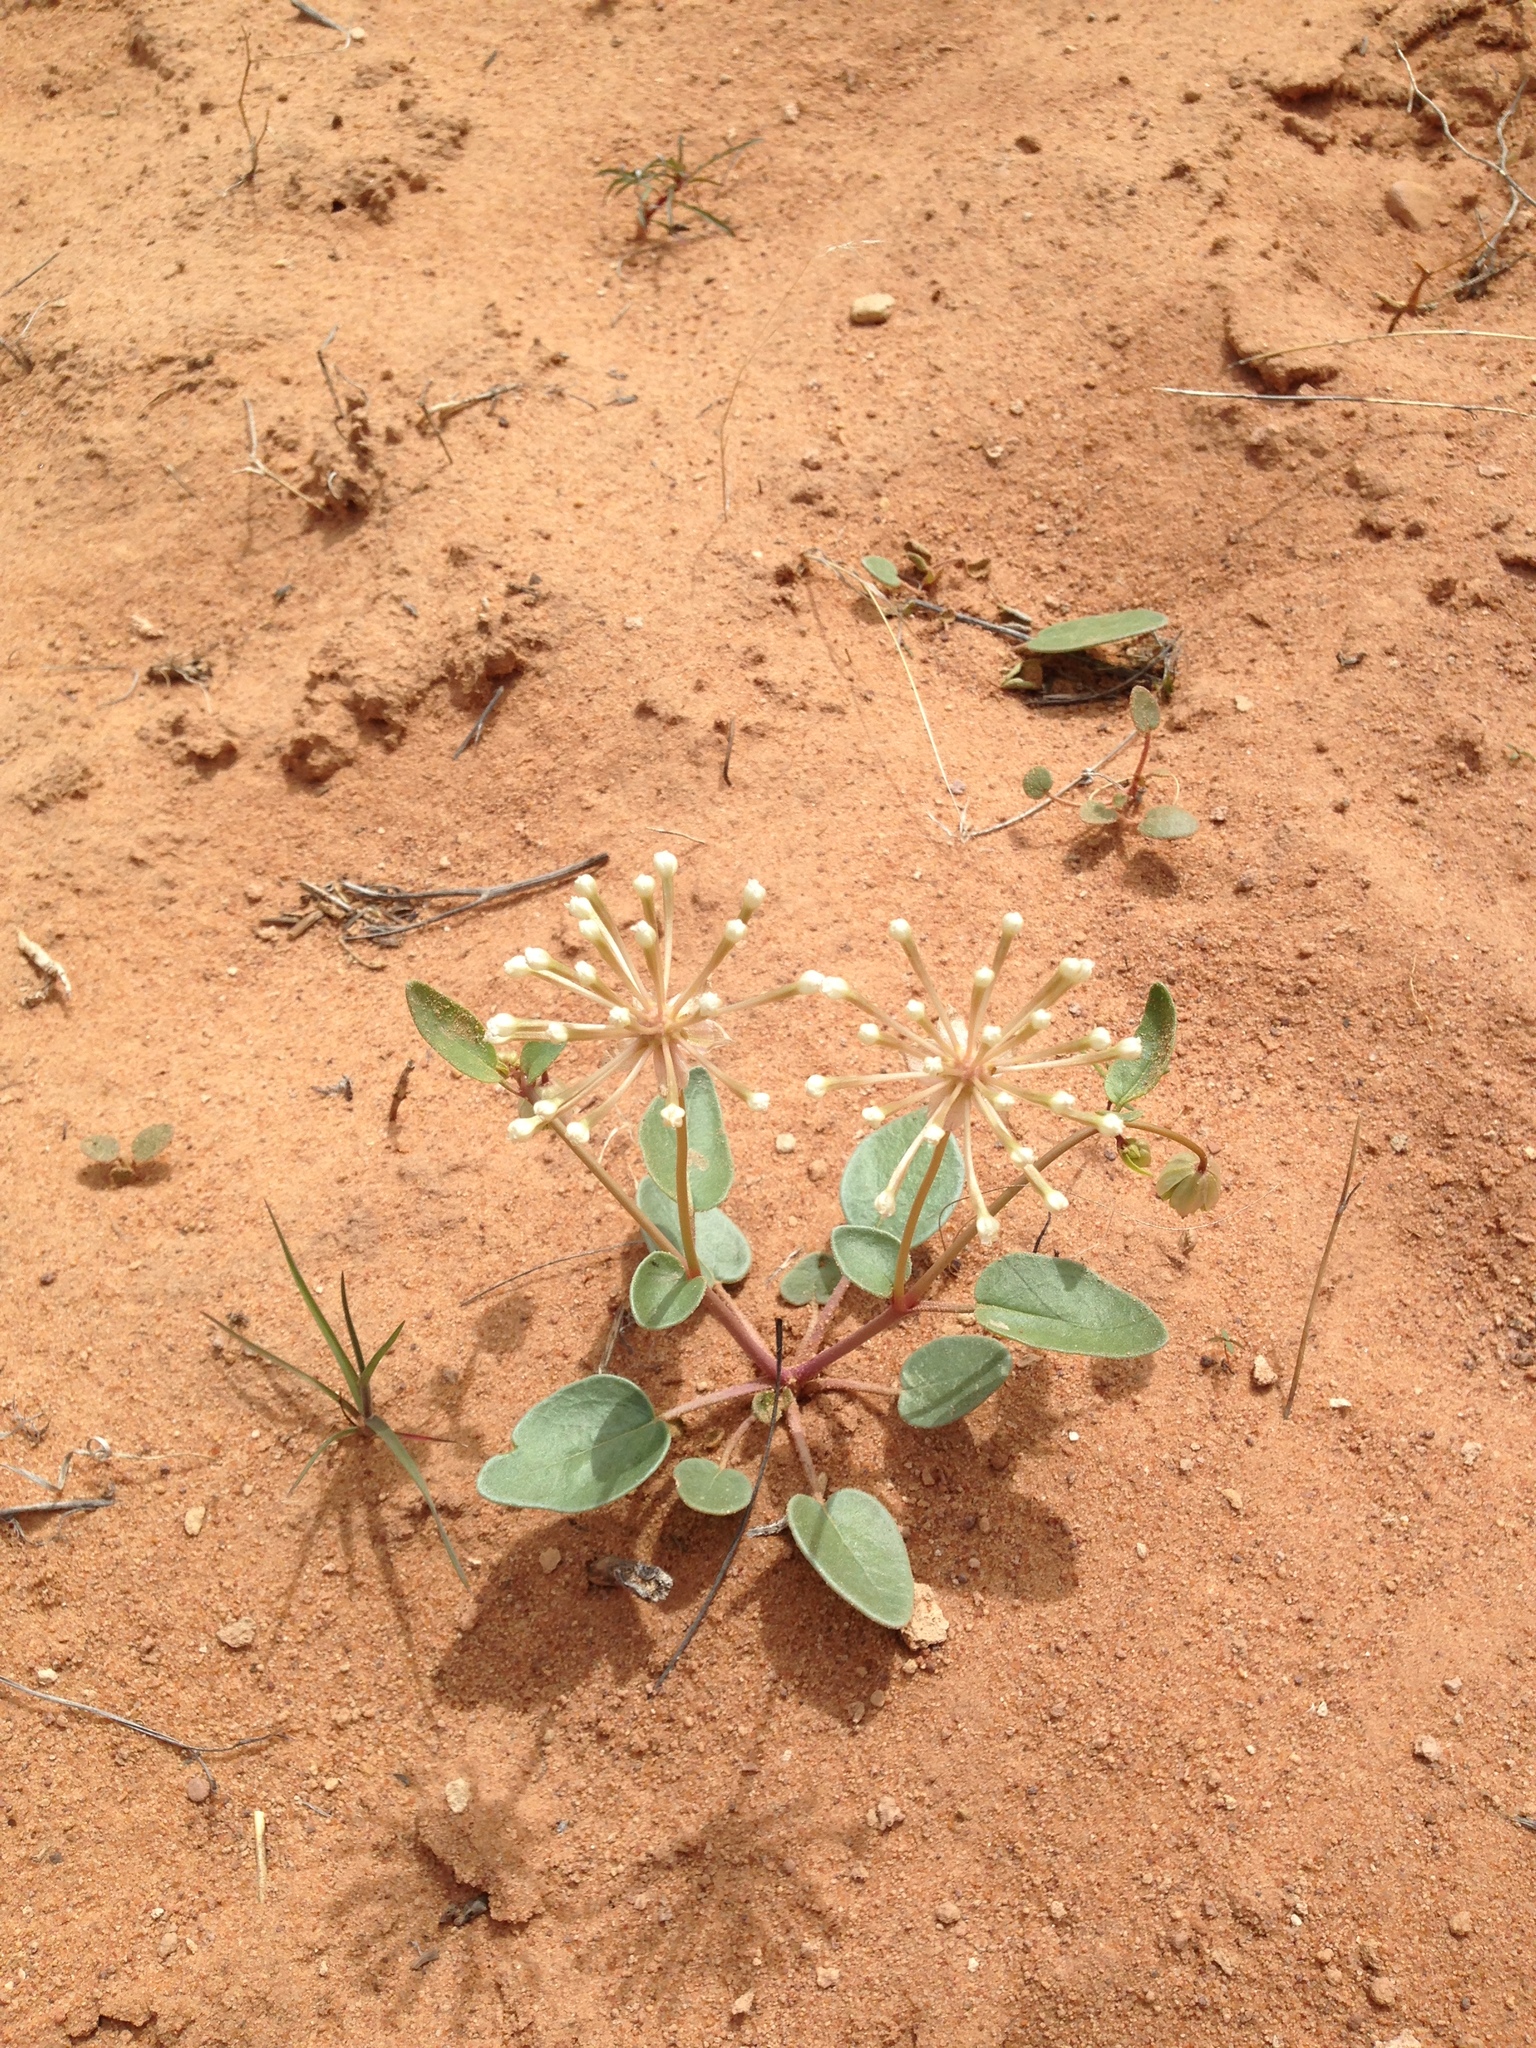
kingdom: Plantae
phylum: Tracheophyta
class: Magnoliopsida
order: Caryophyllales
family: Nyctaginaceae
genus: Abronia
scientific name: Abronia elliptica
